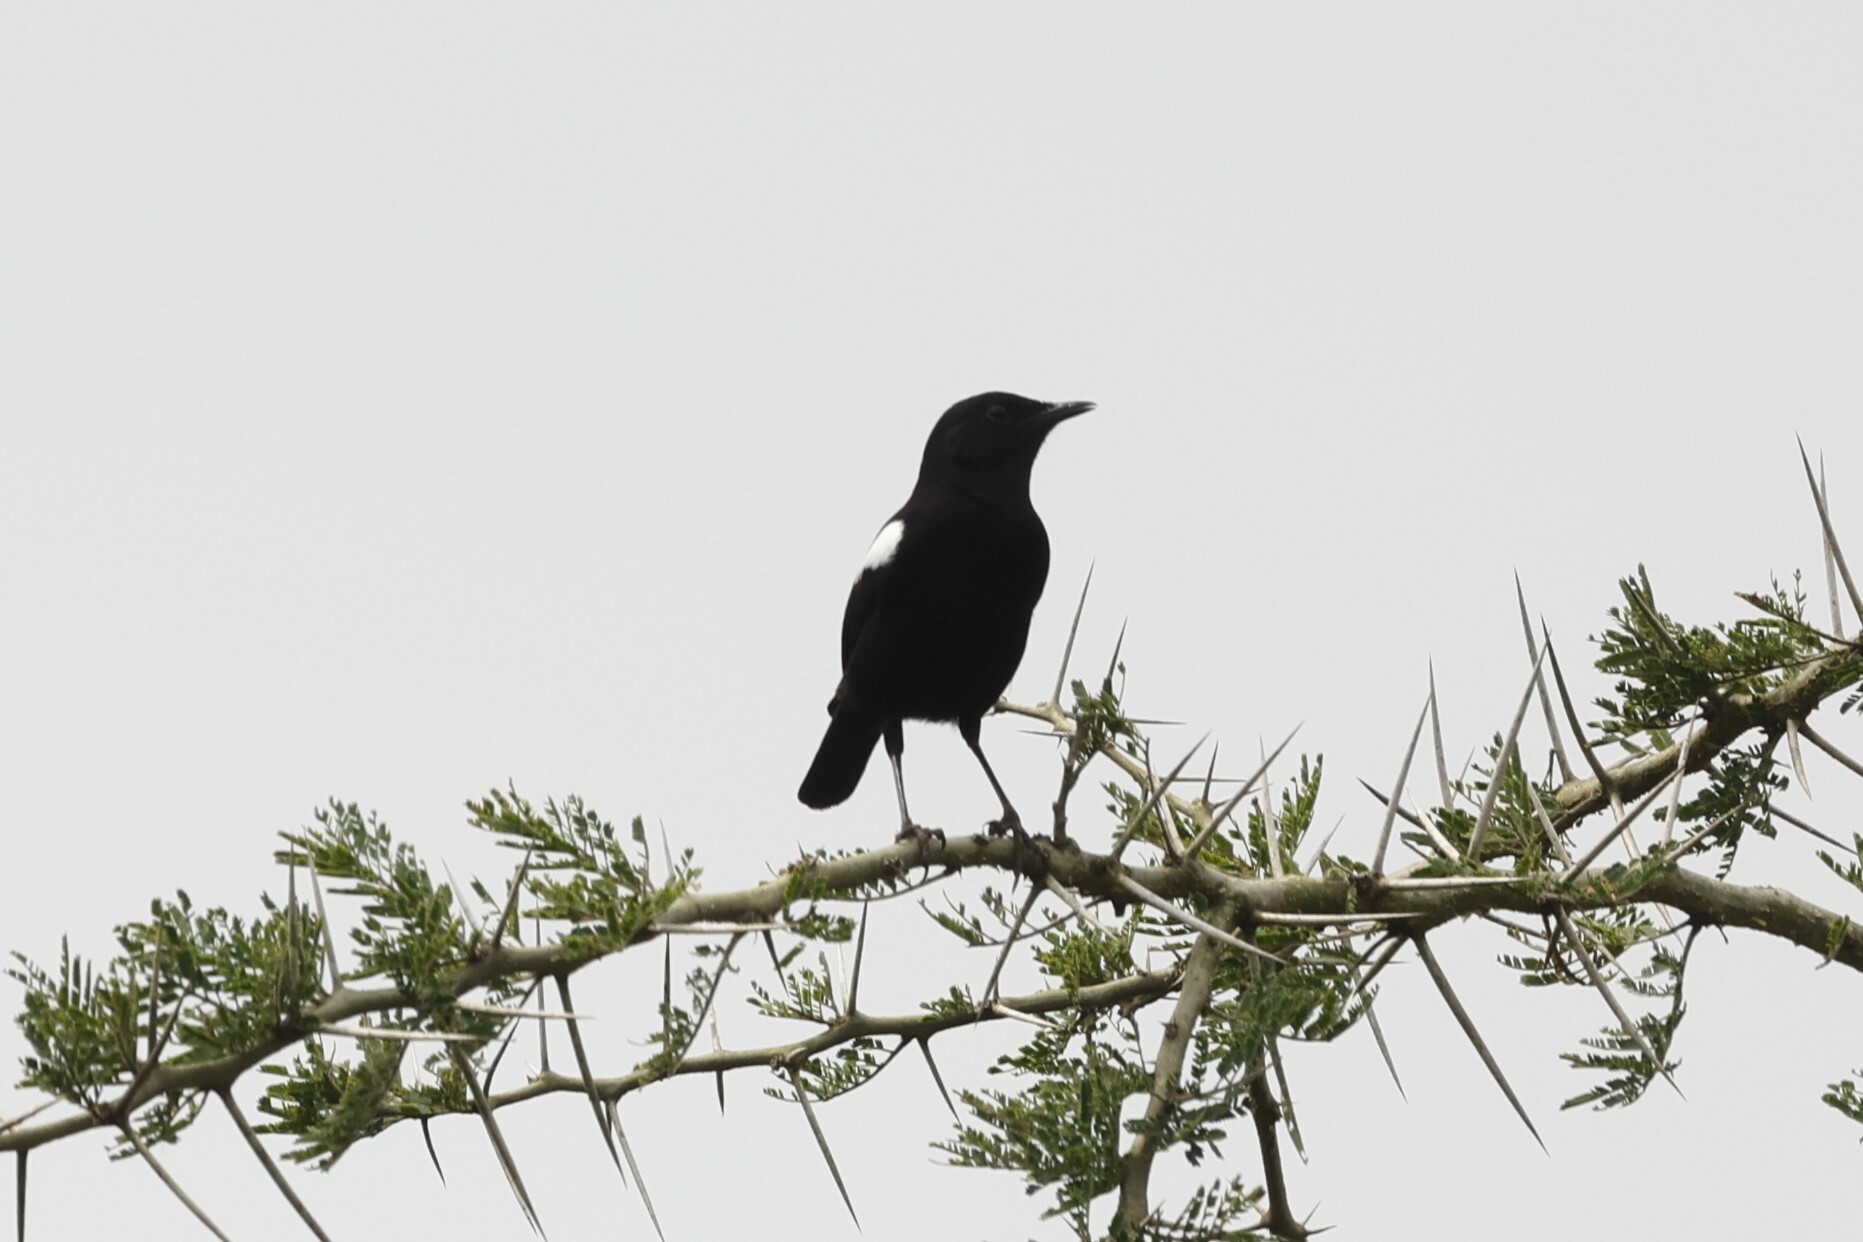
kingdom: Animalia
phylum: Chordata
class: Aves
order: Passeriformes
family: Muscicapidae
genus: Myrmecocichla
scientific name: Myrmecocichla nigra
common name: Sooty chat
